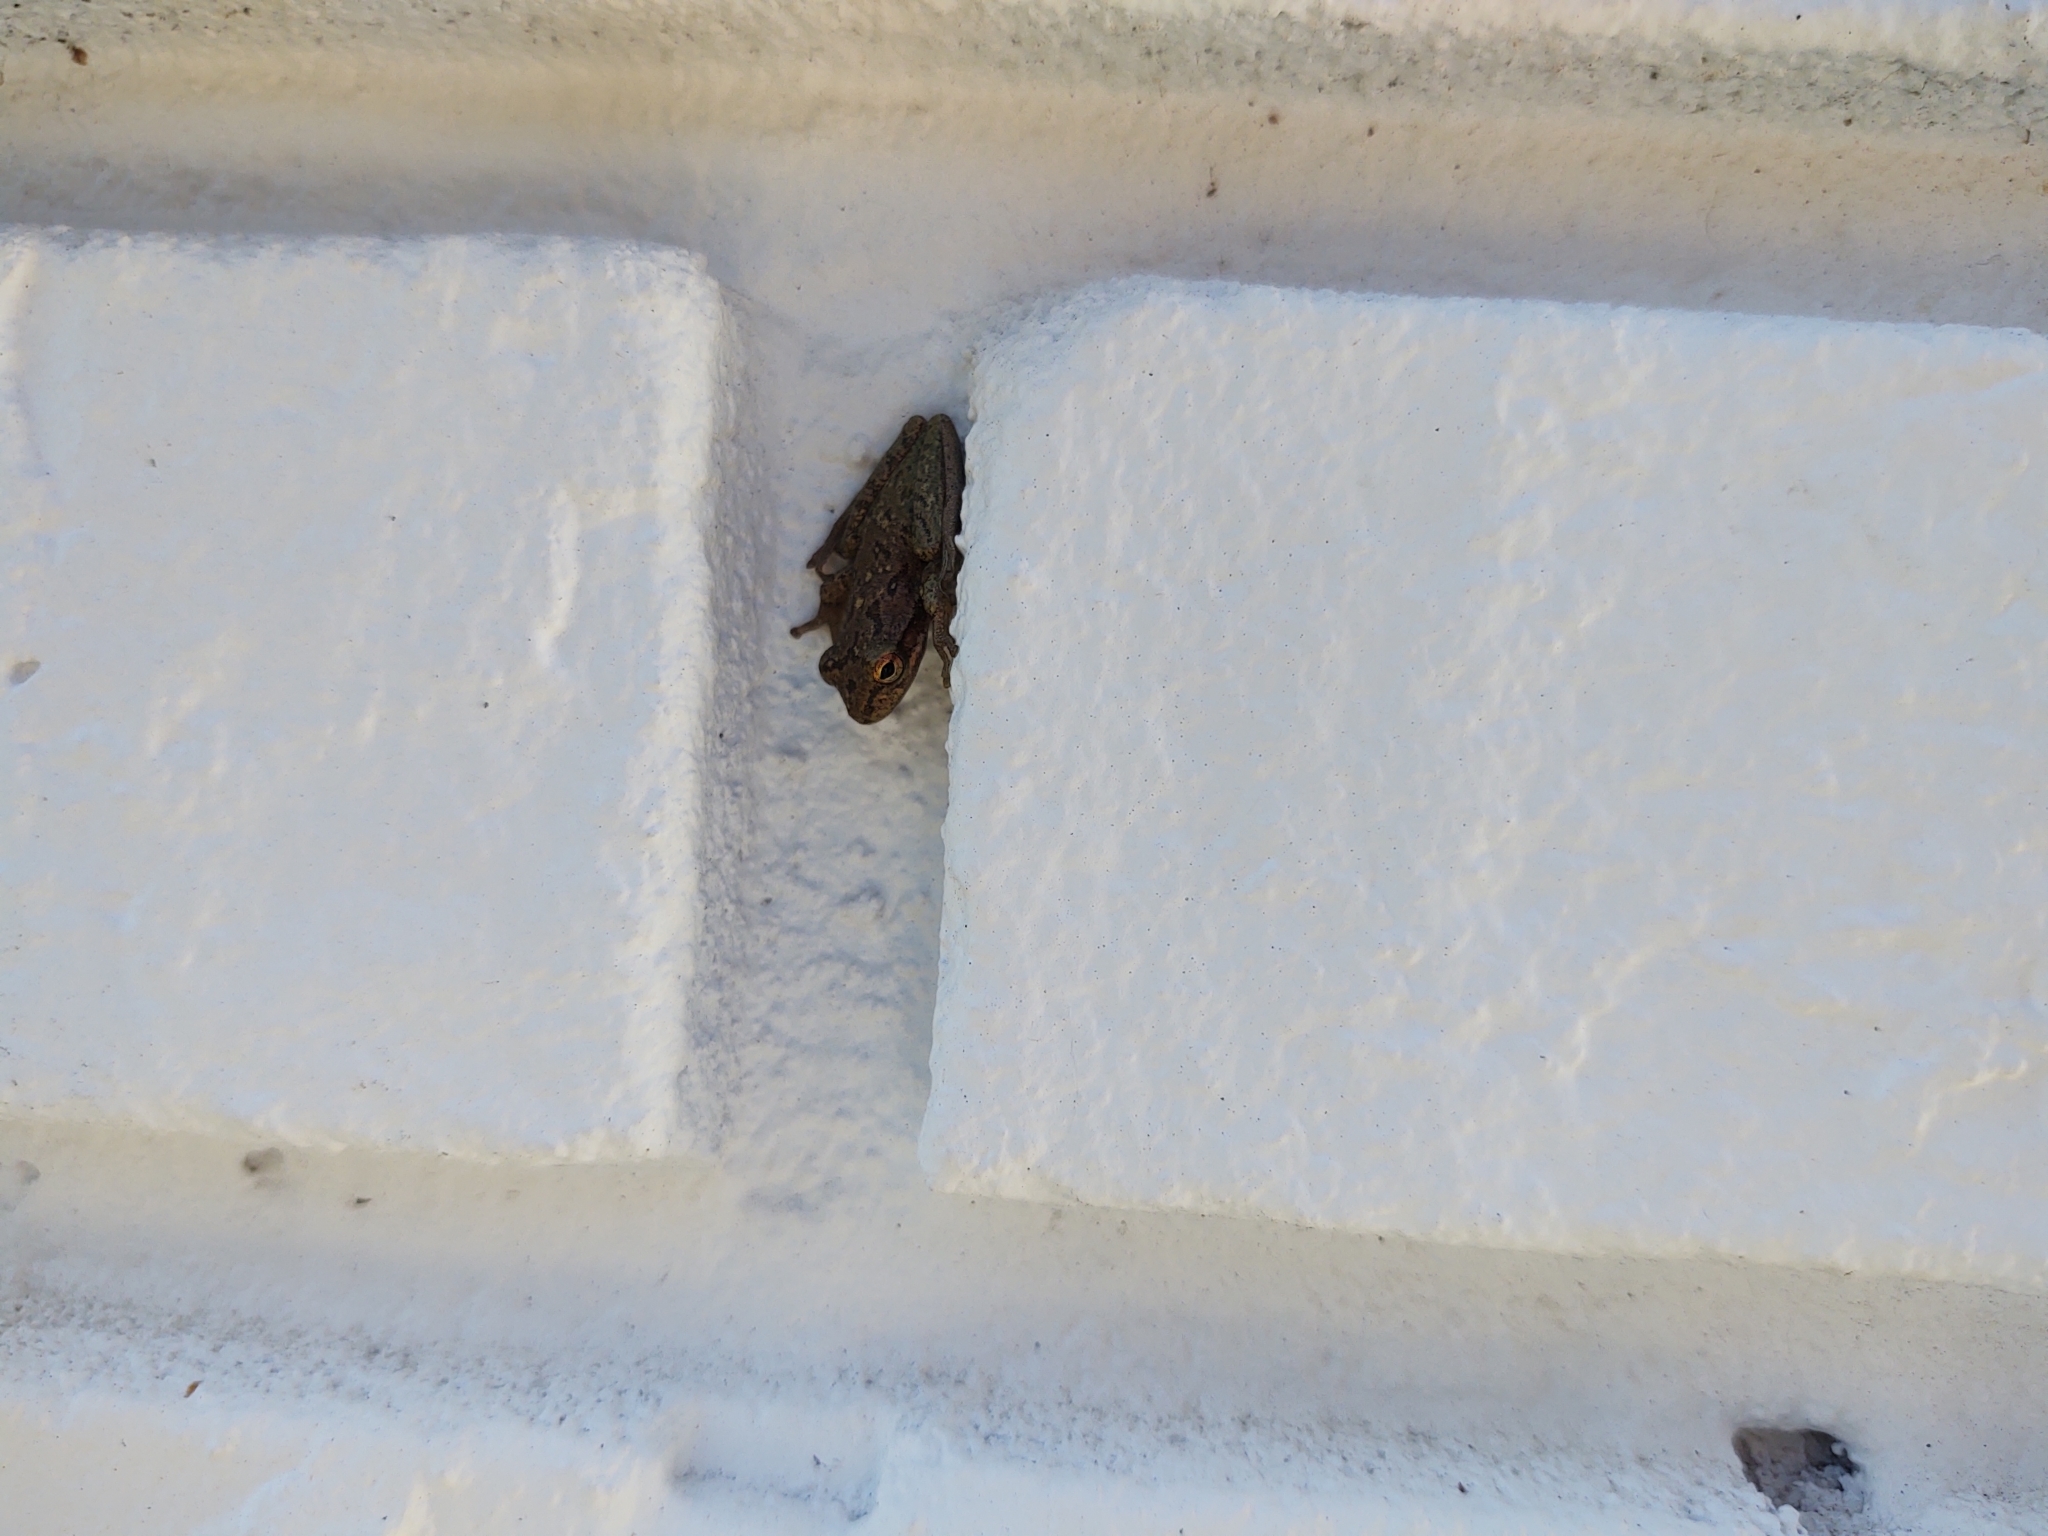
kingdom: Animalia
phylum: Chordata
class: Amphibia
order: Anura
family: Hylidae
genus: Osteopilus
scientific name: Osteopilus septentrionalis
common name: Cuban treefrog
